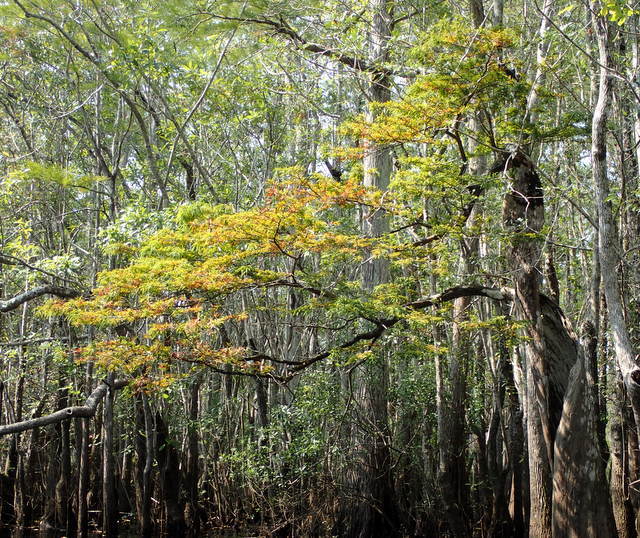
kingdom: Plantae
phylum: Tracheophyta
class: Pinopsida
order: Pinales
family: Cupressaceae
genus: Taxodium
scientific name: Taxodium distichum
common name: Bald cypress
